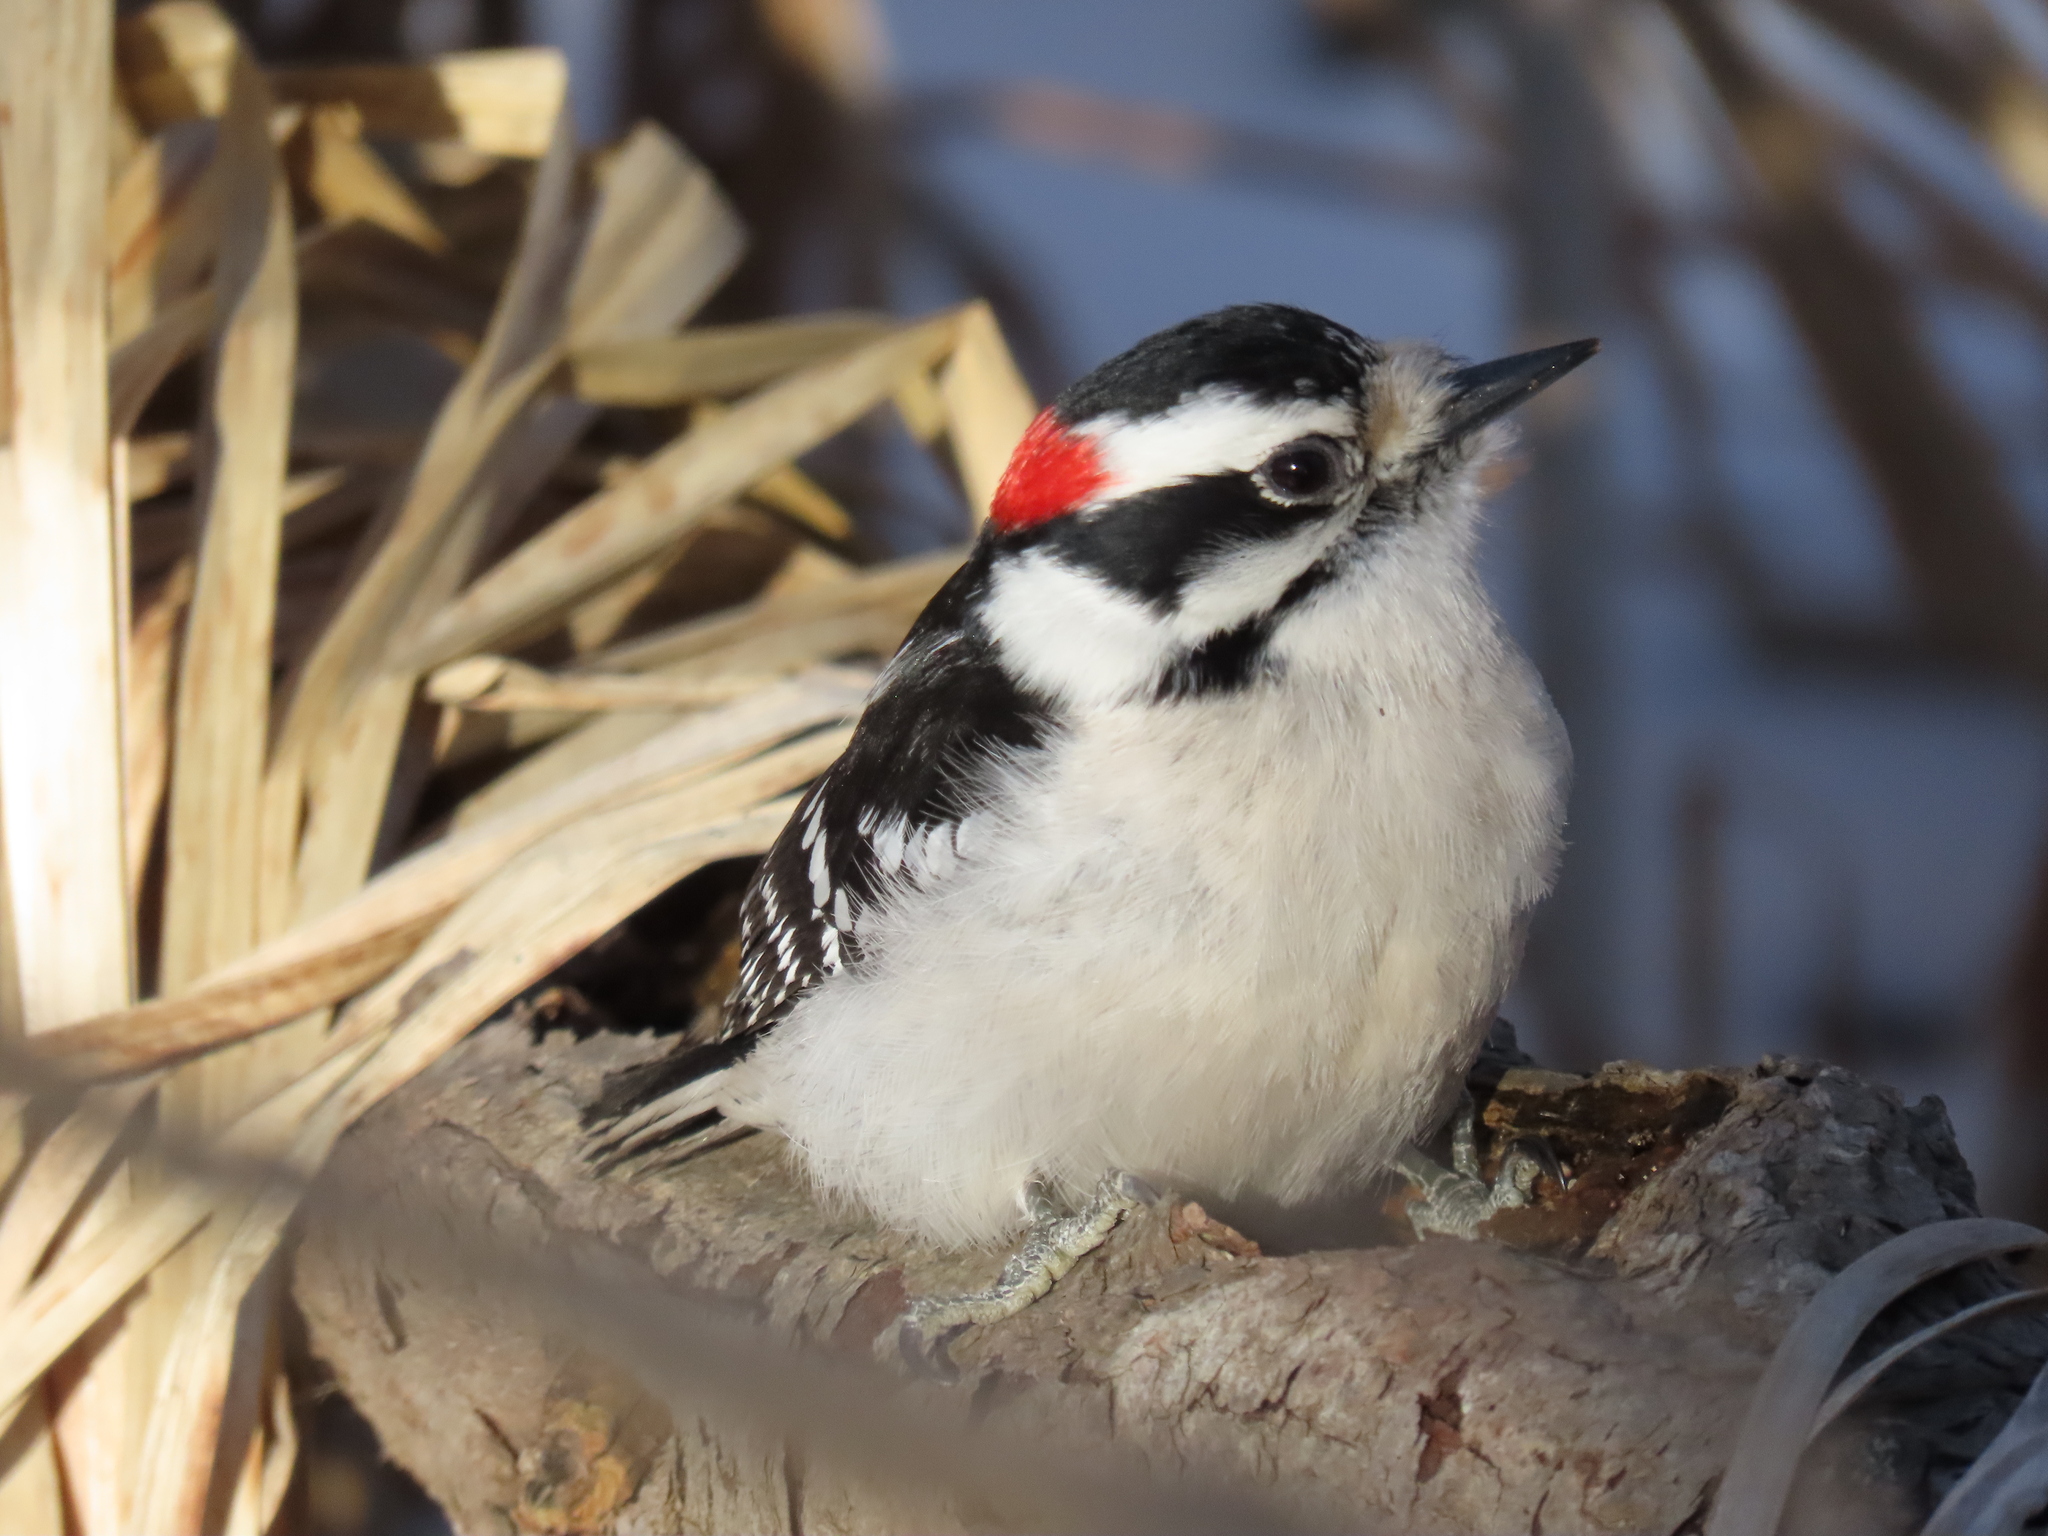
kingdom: Animalia
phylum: Chordata
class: Aves
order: Piciformes
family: Picidae
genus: Dryobates
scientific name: Dryobates pubescens
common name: Downy woodpecker
